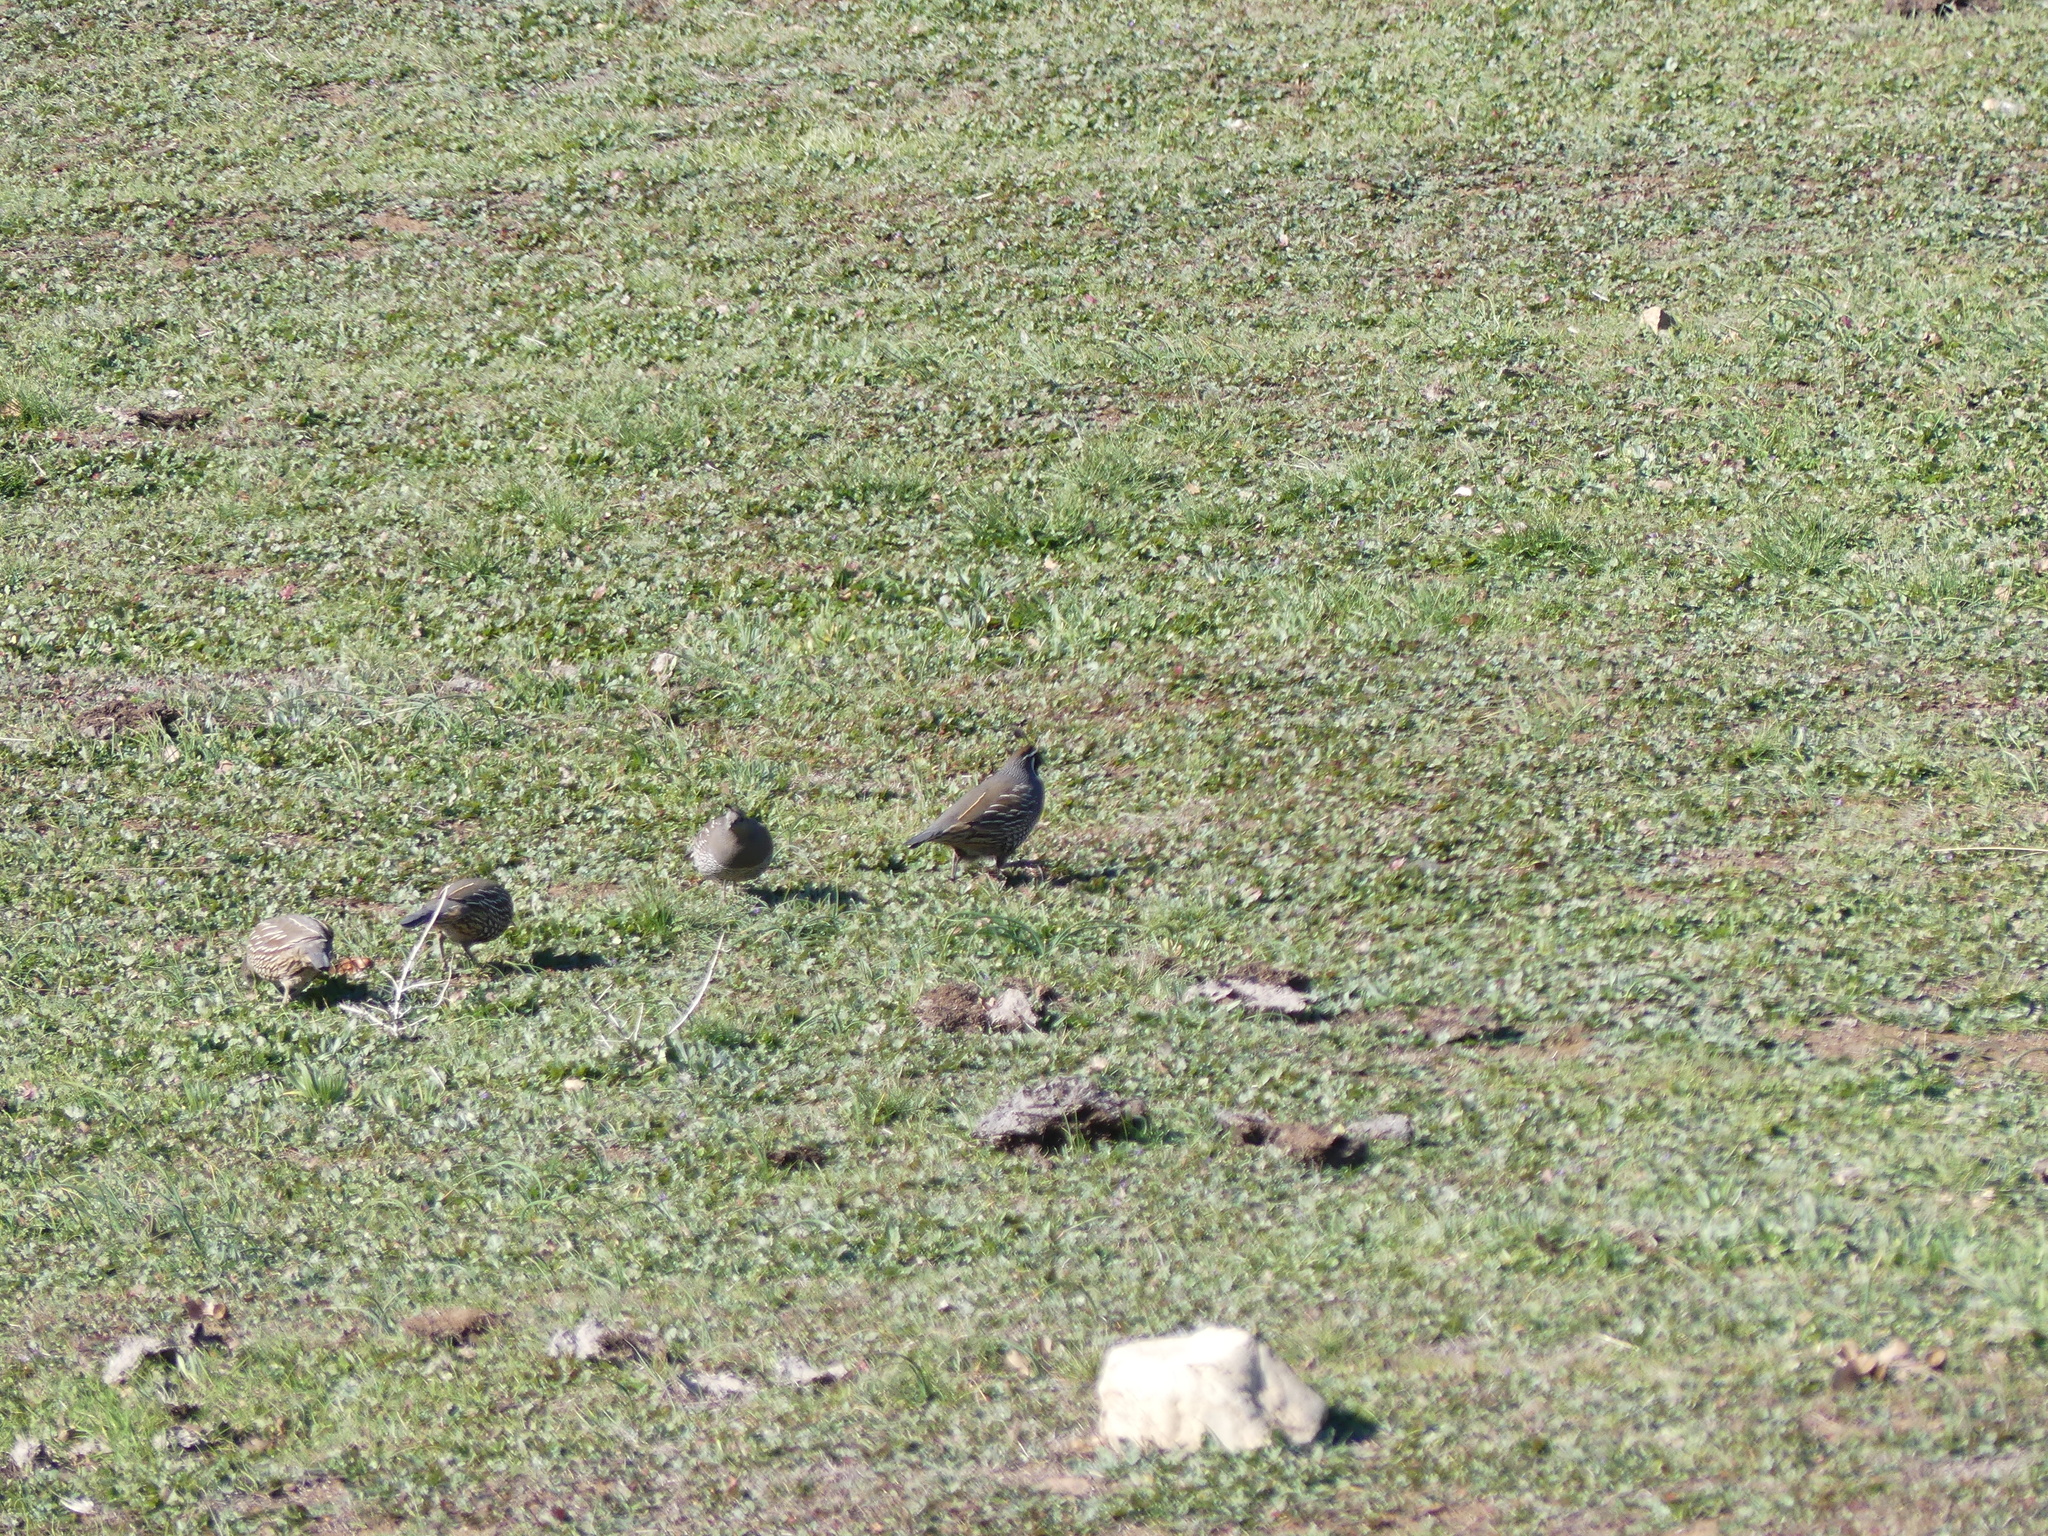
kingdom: Animalia
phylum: Chordata
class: Aves
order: Galliformes
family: Odontophoridae
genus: Callipepla
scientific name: Callipepla californica
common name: California quail
